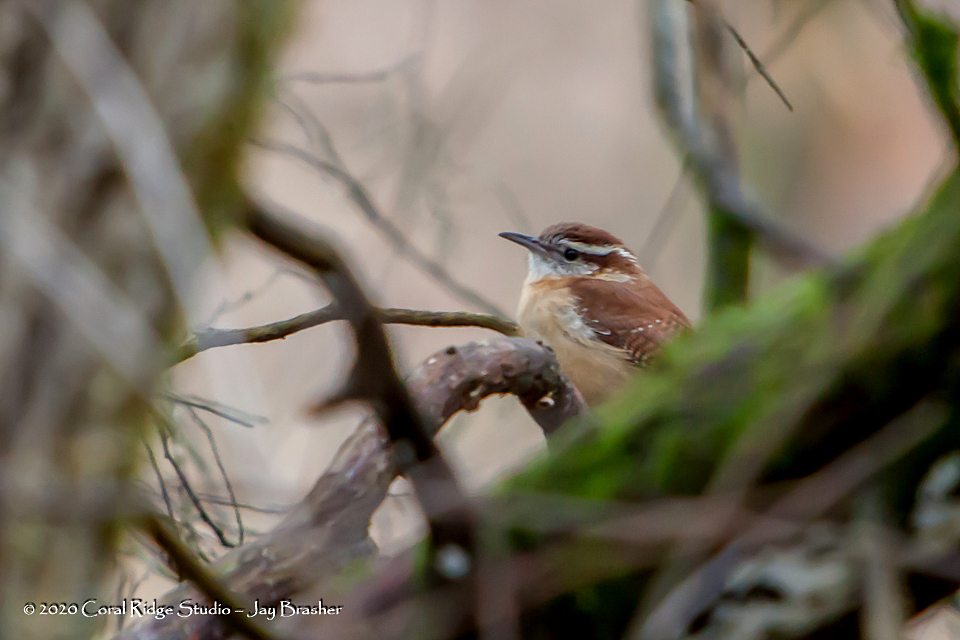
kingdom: Animalia
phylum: Chordata
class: Aves
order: Passeriformes
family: Troglodytidae
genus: Thryothorus
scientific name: Thryothorus ludovicianus
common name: Carolina wren
